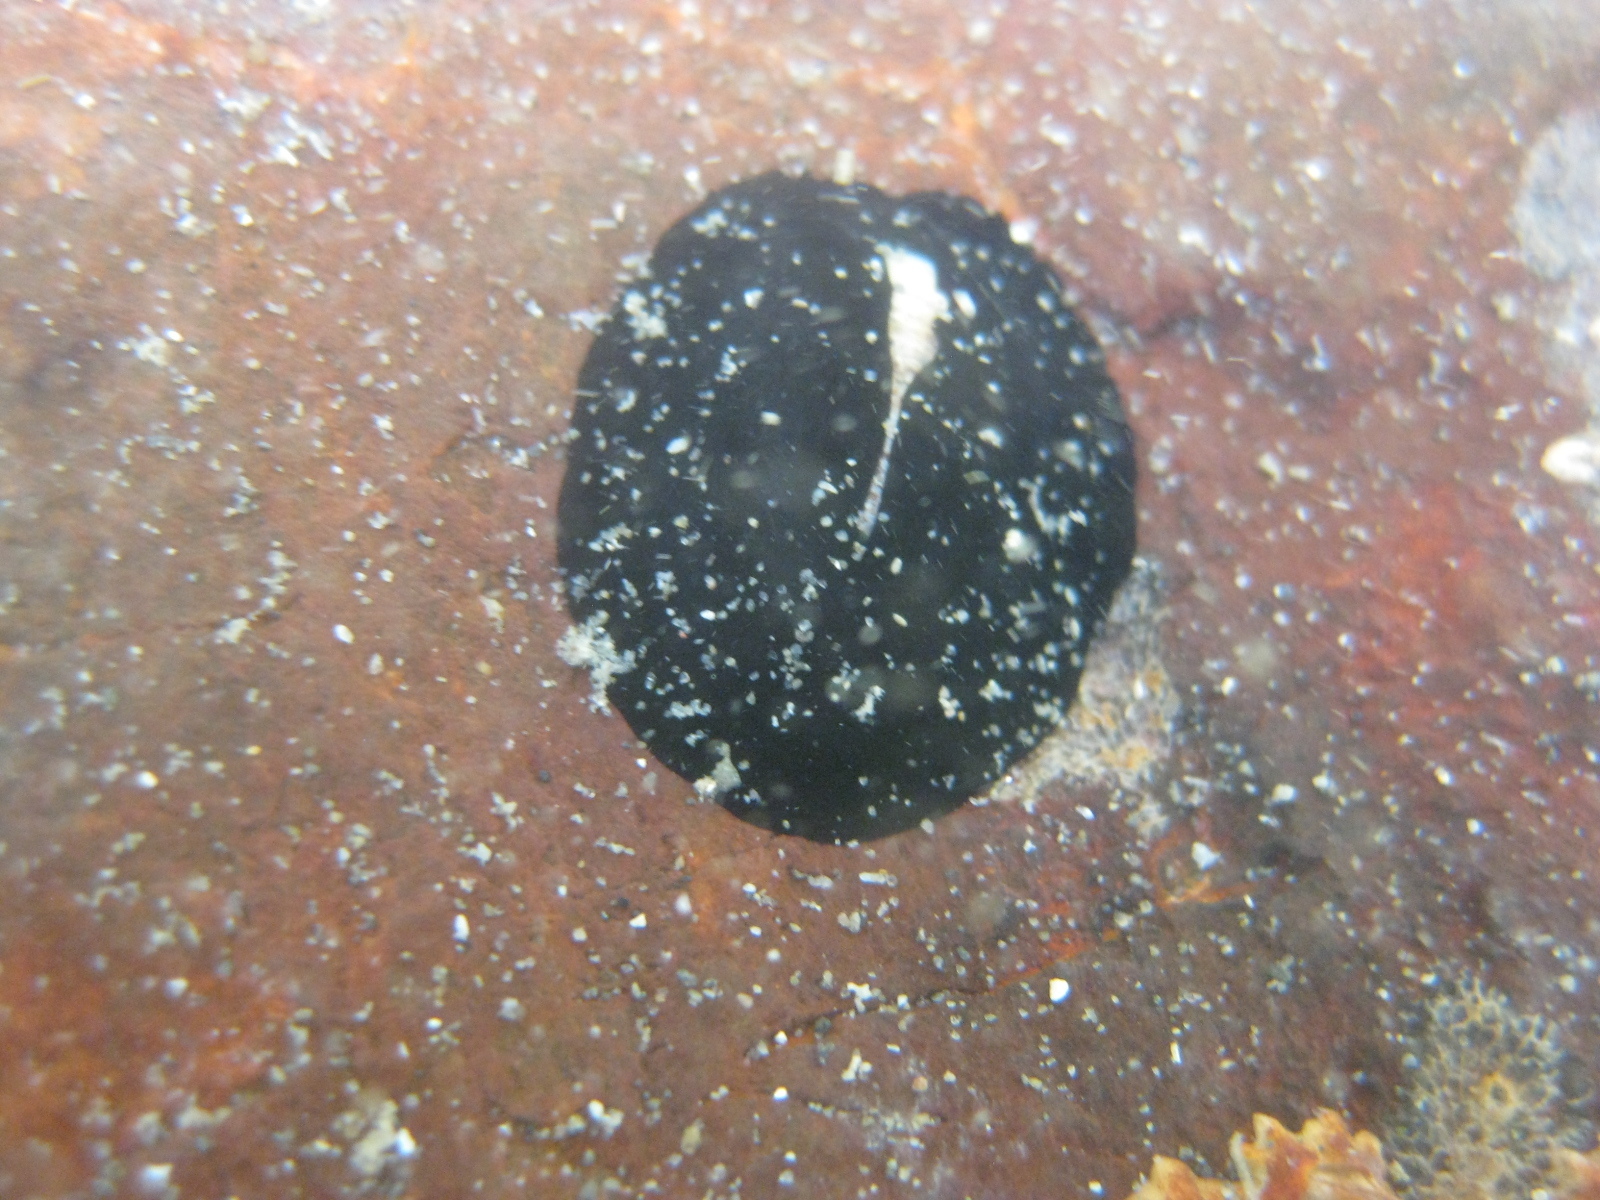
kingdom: Animalia
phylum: Mollusca
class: Gastropoda
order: Lepetellida
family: Fissurellidae
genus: Scutus
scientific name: Scutus breviculus
